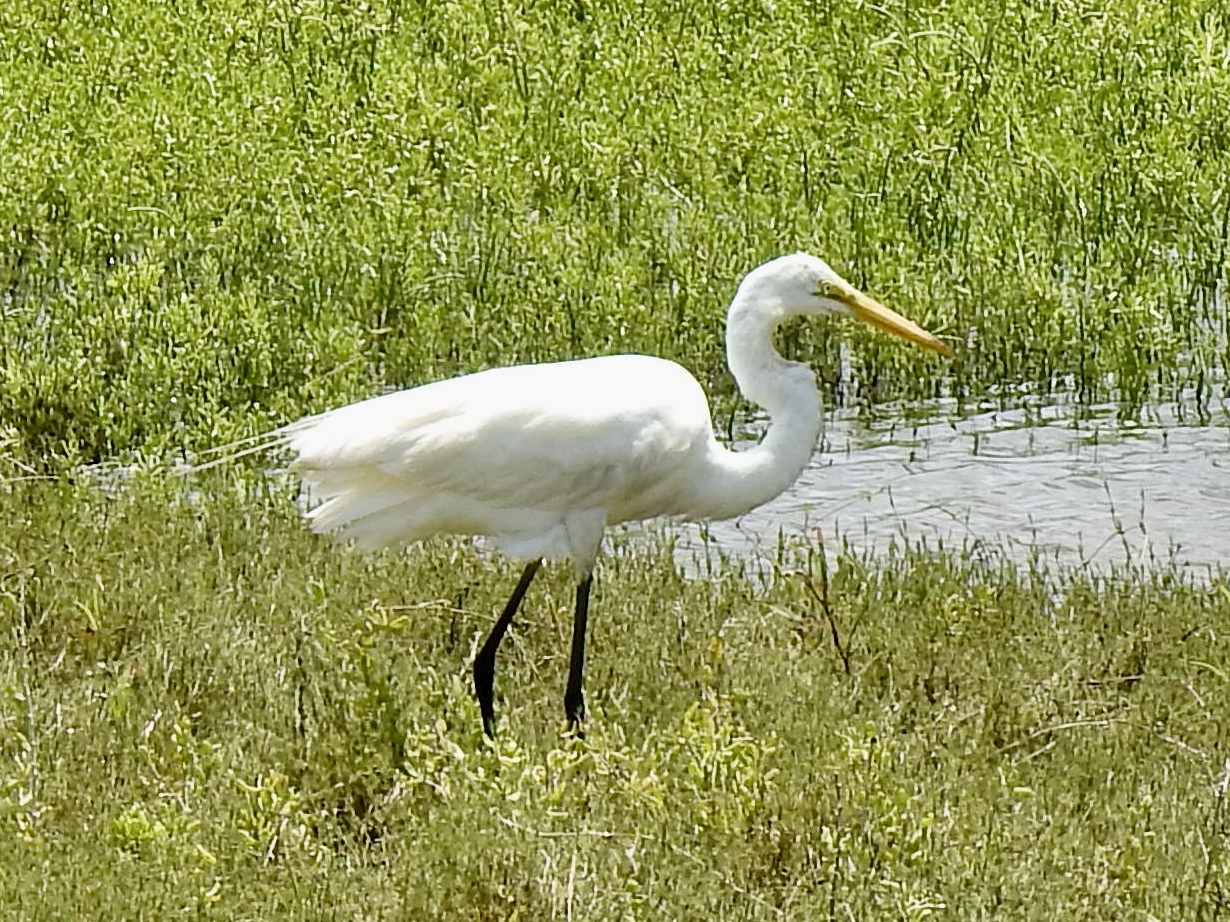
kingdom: Animalia
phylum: Chordata
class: Aves
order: Pelecaniformes
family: Ardeidae
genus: Ardea
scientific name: Ardea alba
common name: Great egret
